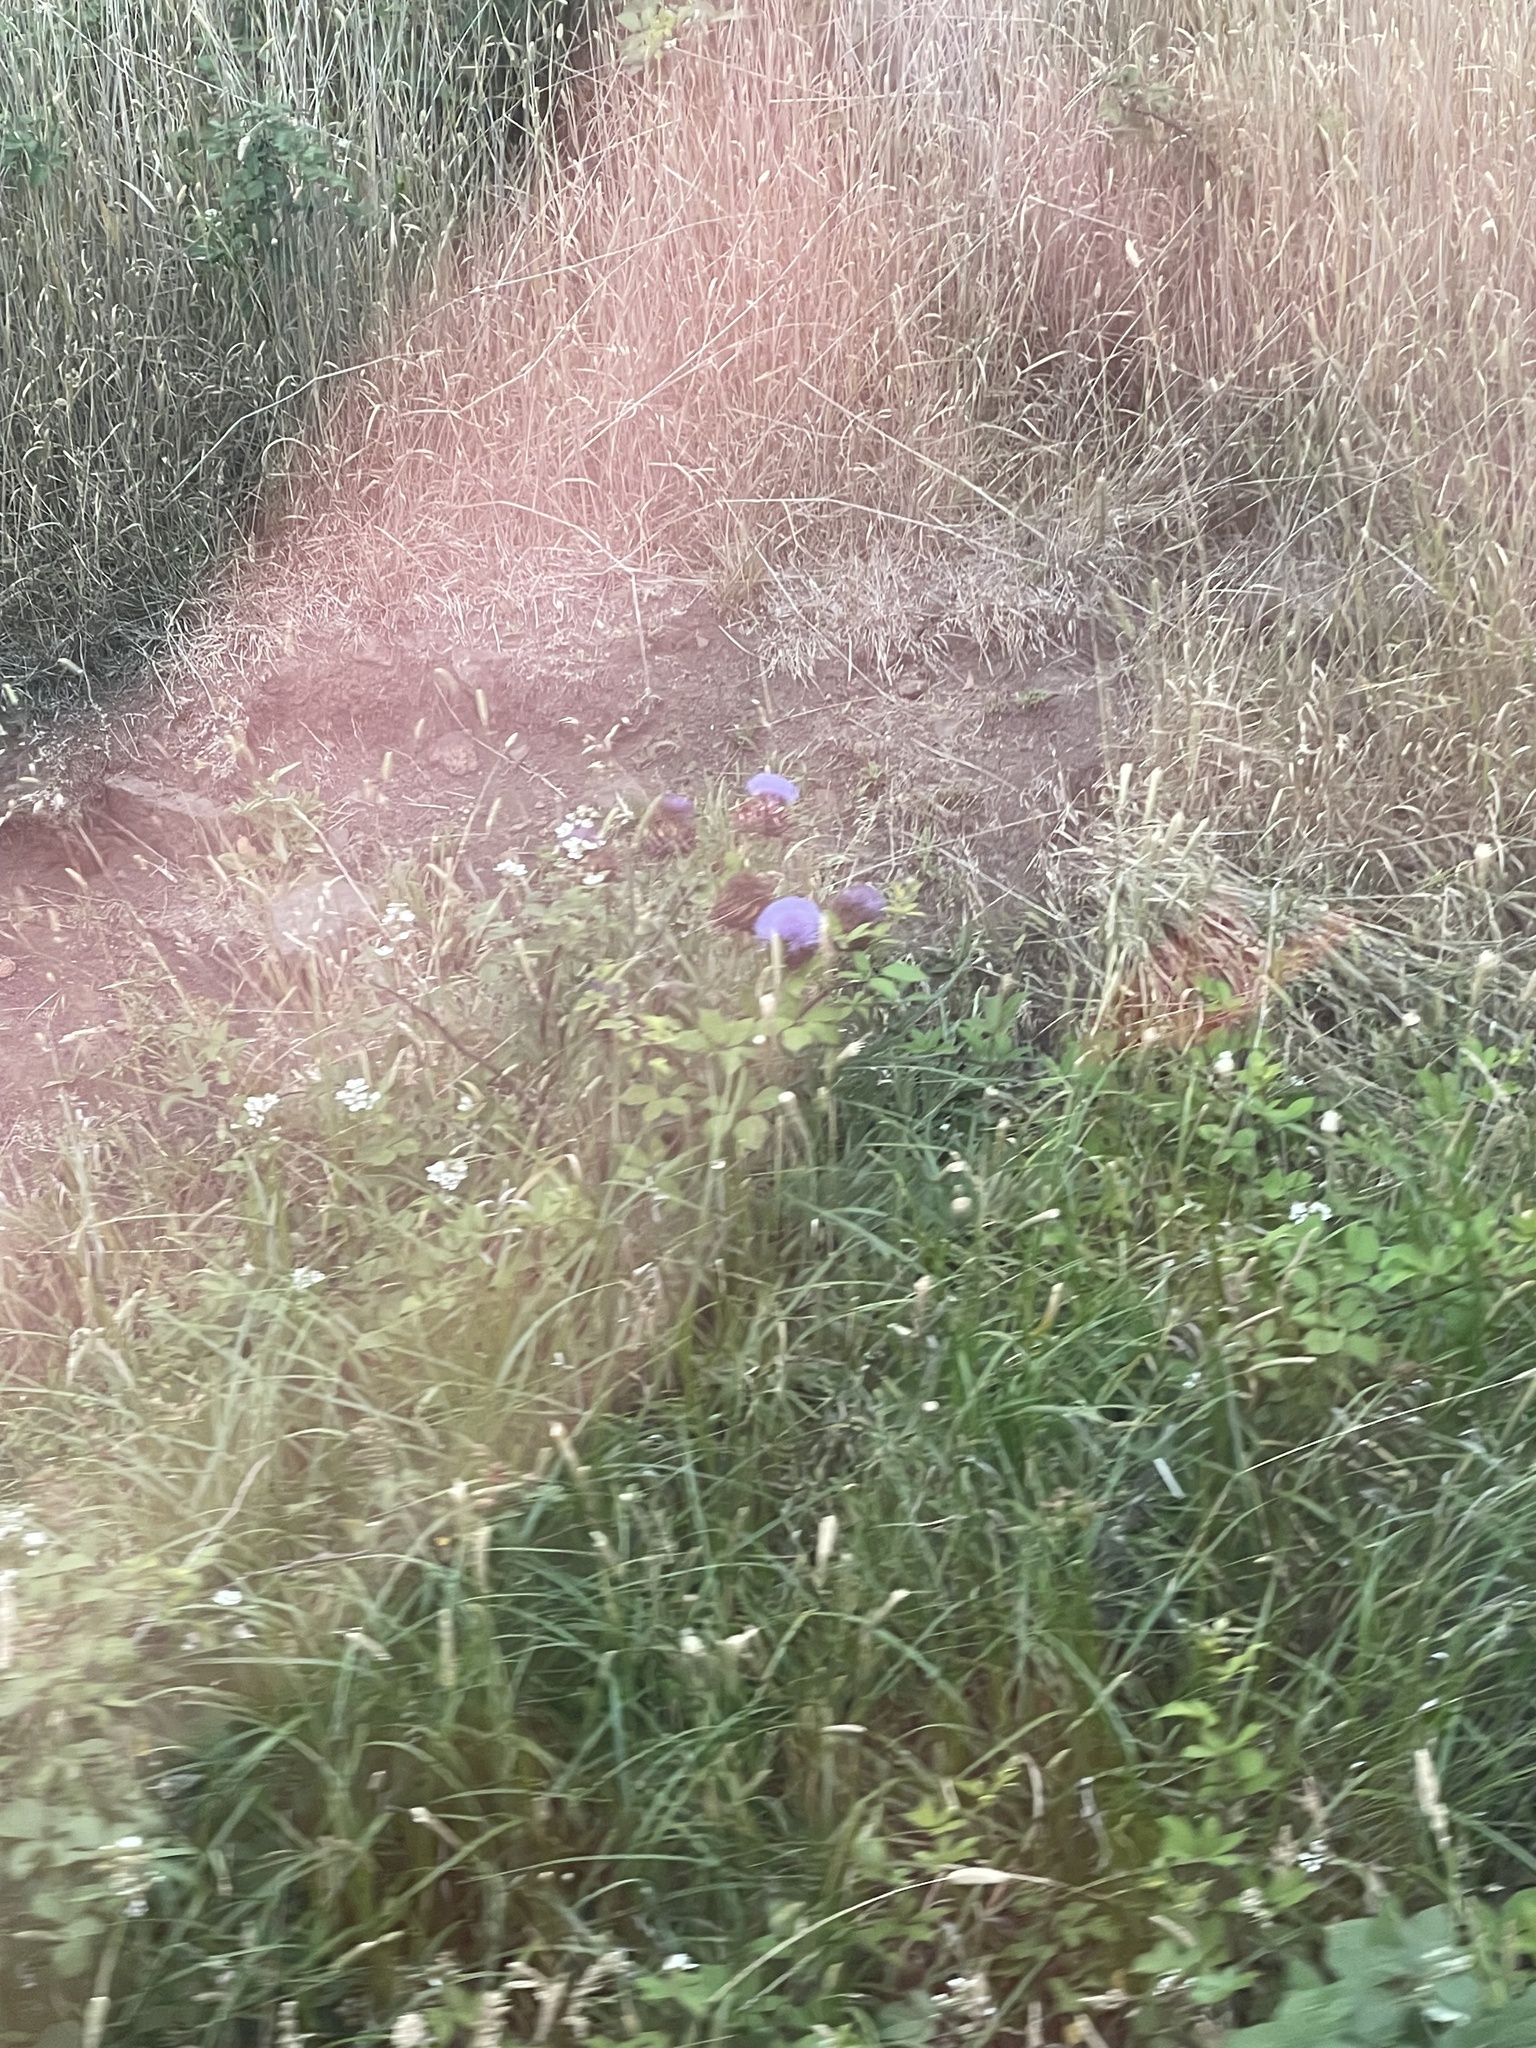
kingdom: Plantae
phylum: Tracheophyta
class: Magnoliopsida
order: Asterales
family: Asteraceae
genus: Cynara
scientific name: Cynara cardunculus
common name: Globe artichoke
